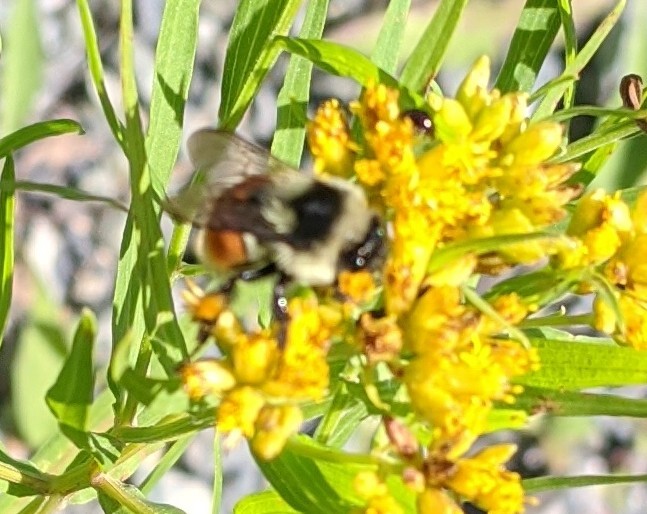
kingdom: Animalia
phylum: Arthropoda
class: Insecta
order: Hymenoptera
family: Apidae
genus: Bombus
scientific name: Bombus ternarius
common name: Tri-colored bumble bee
